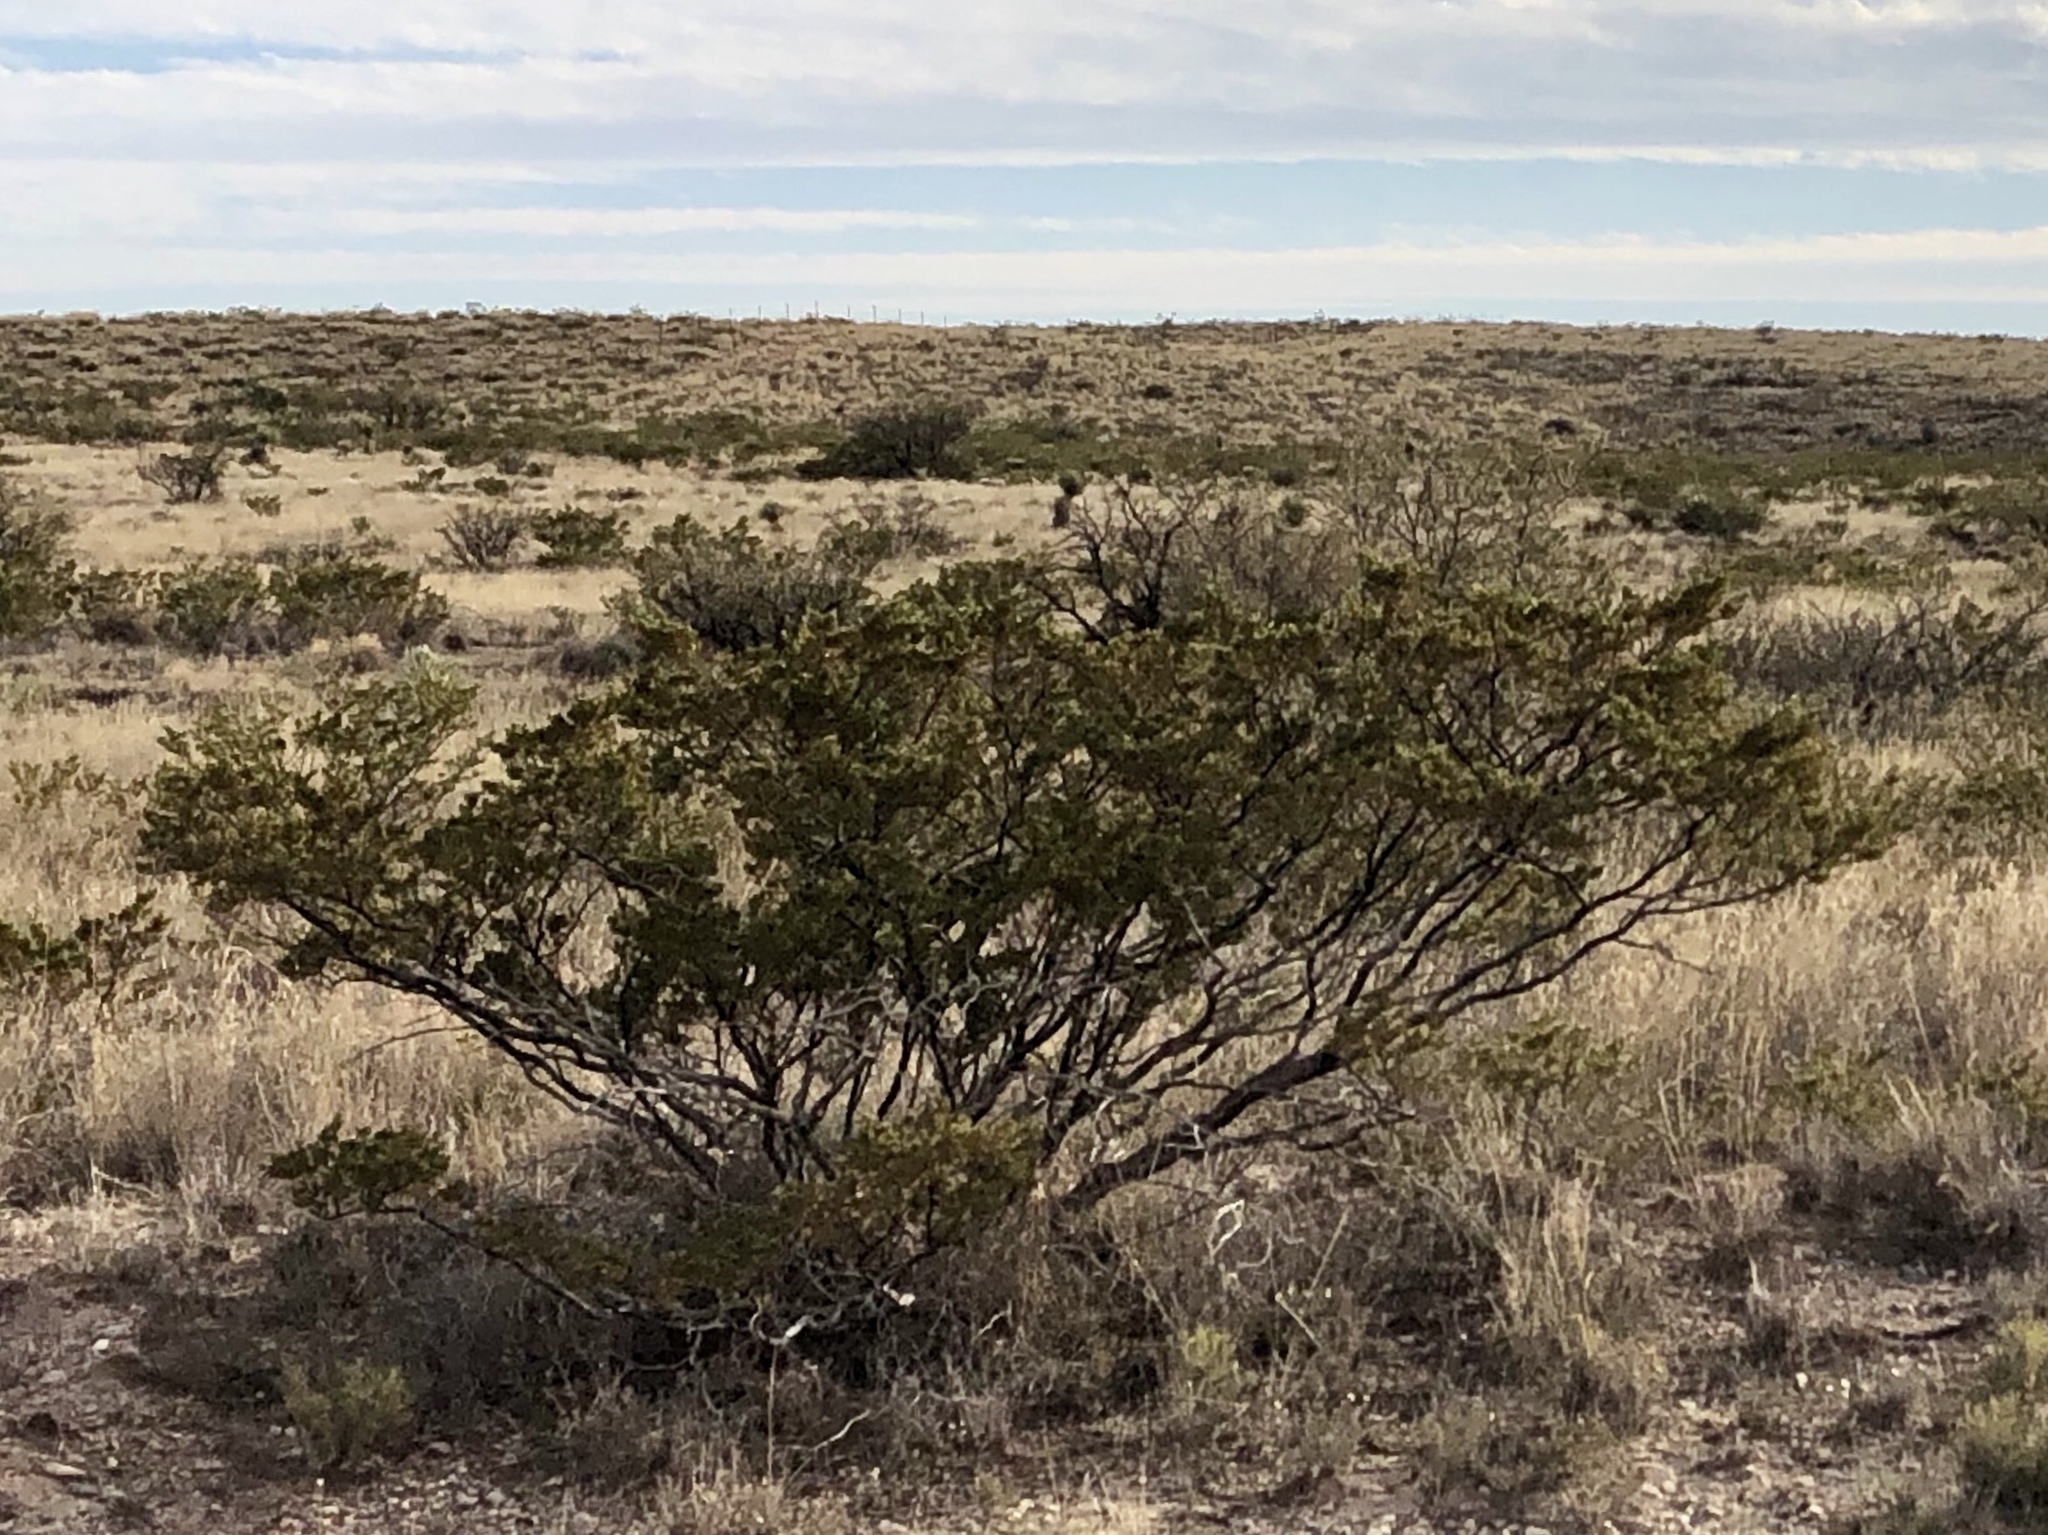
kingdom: Plantae
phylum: Tracheophyta
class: Magnoliopsida
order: Zygophyllales
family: Zygophyllaceae
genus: Larrea
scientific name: Larrea tridentata
